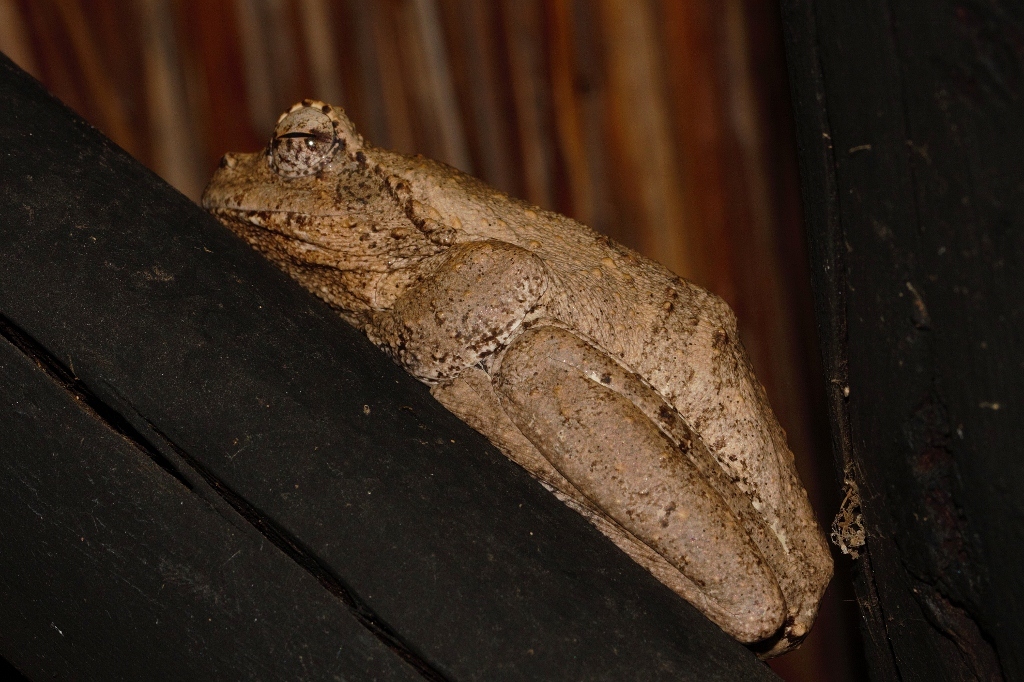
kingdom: Animalia
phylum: Chordata
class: Amphibia
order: Anura
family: Rhacophoridae
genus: Chiromantis
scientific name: Chiromantis xerampelina
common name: African gray treefrog
